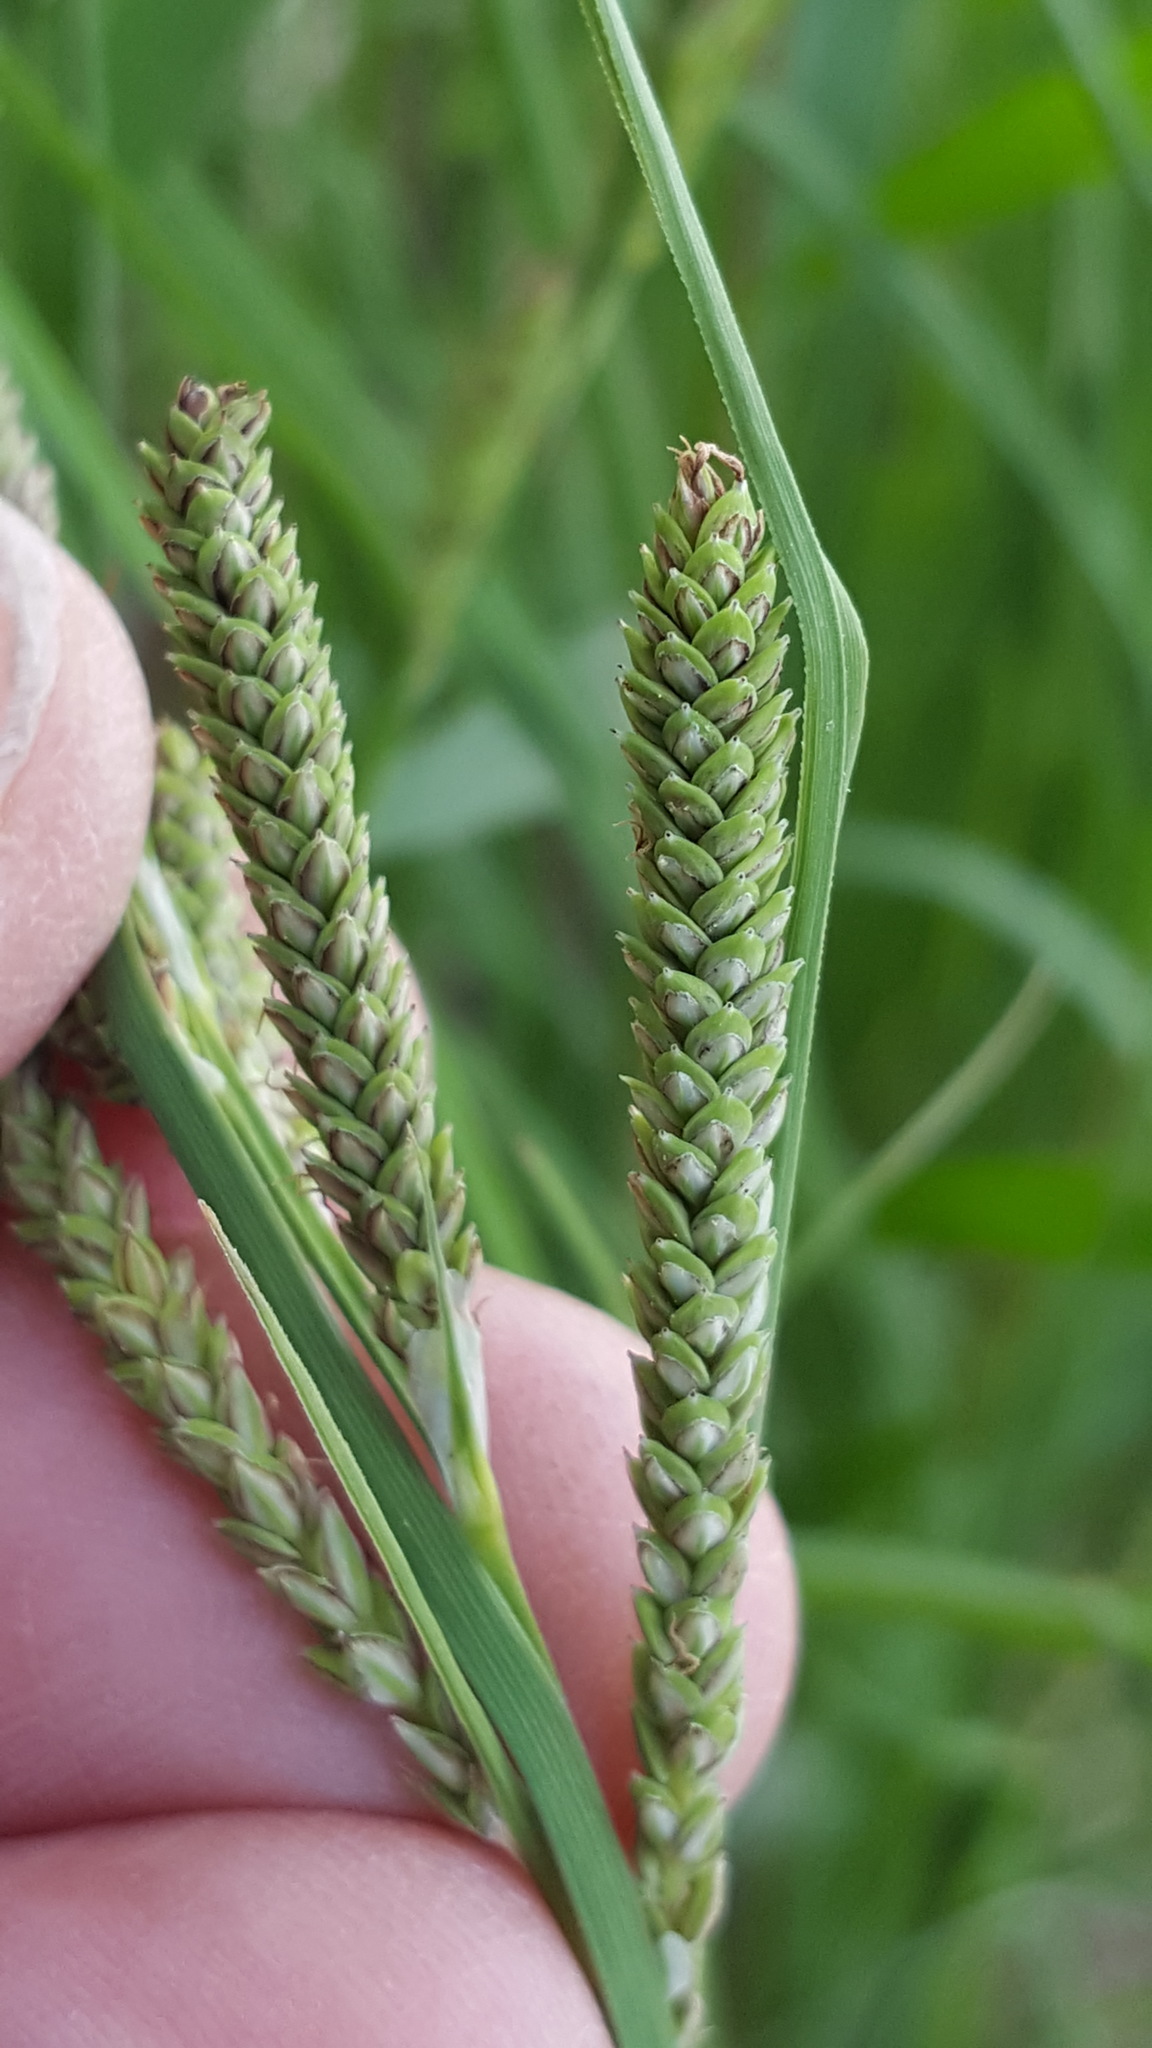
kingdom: Plantae
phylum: Tracheophyta
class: Liliopsida
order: Poales
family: Cyperaceae
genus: Carex
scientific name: Carex lenticularis
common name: Lakeshore sedge
